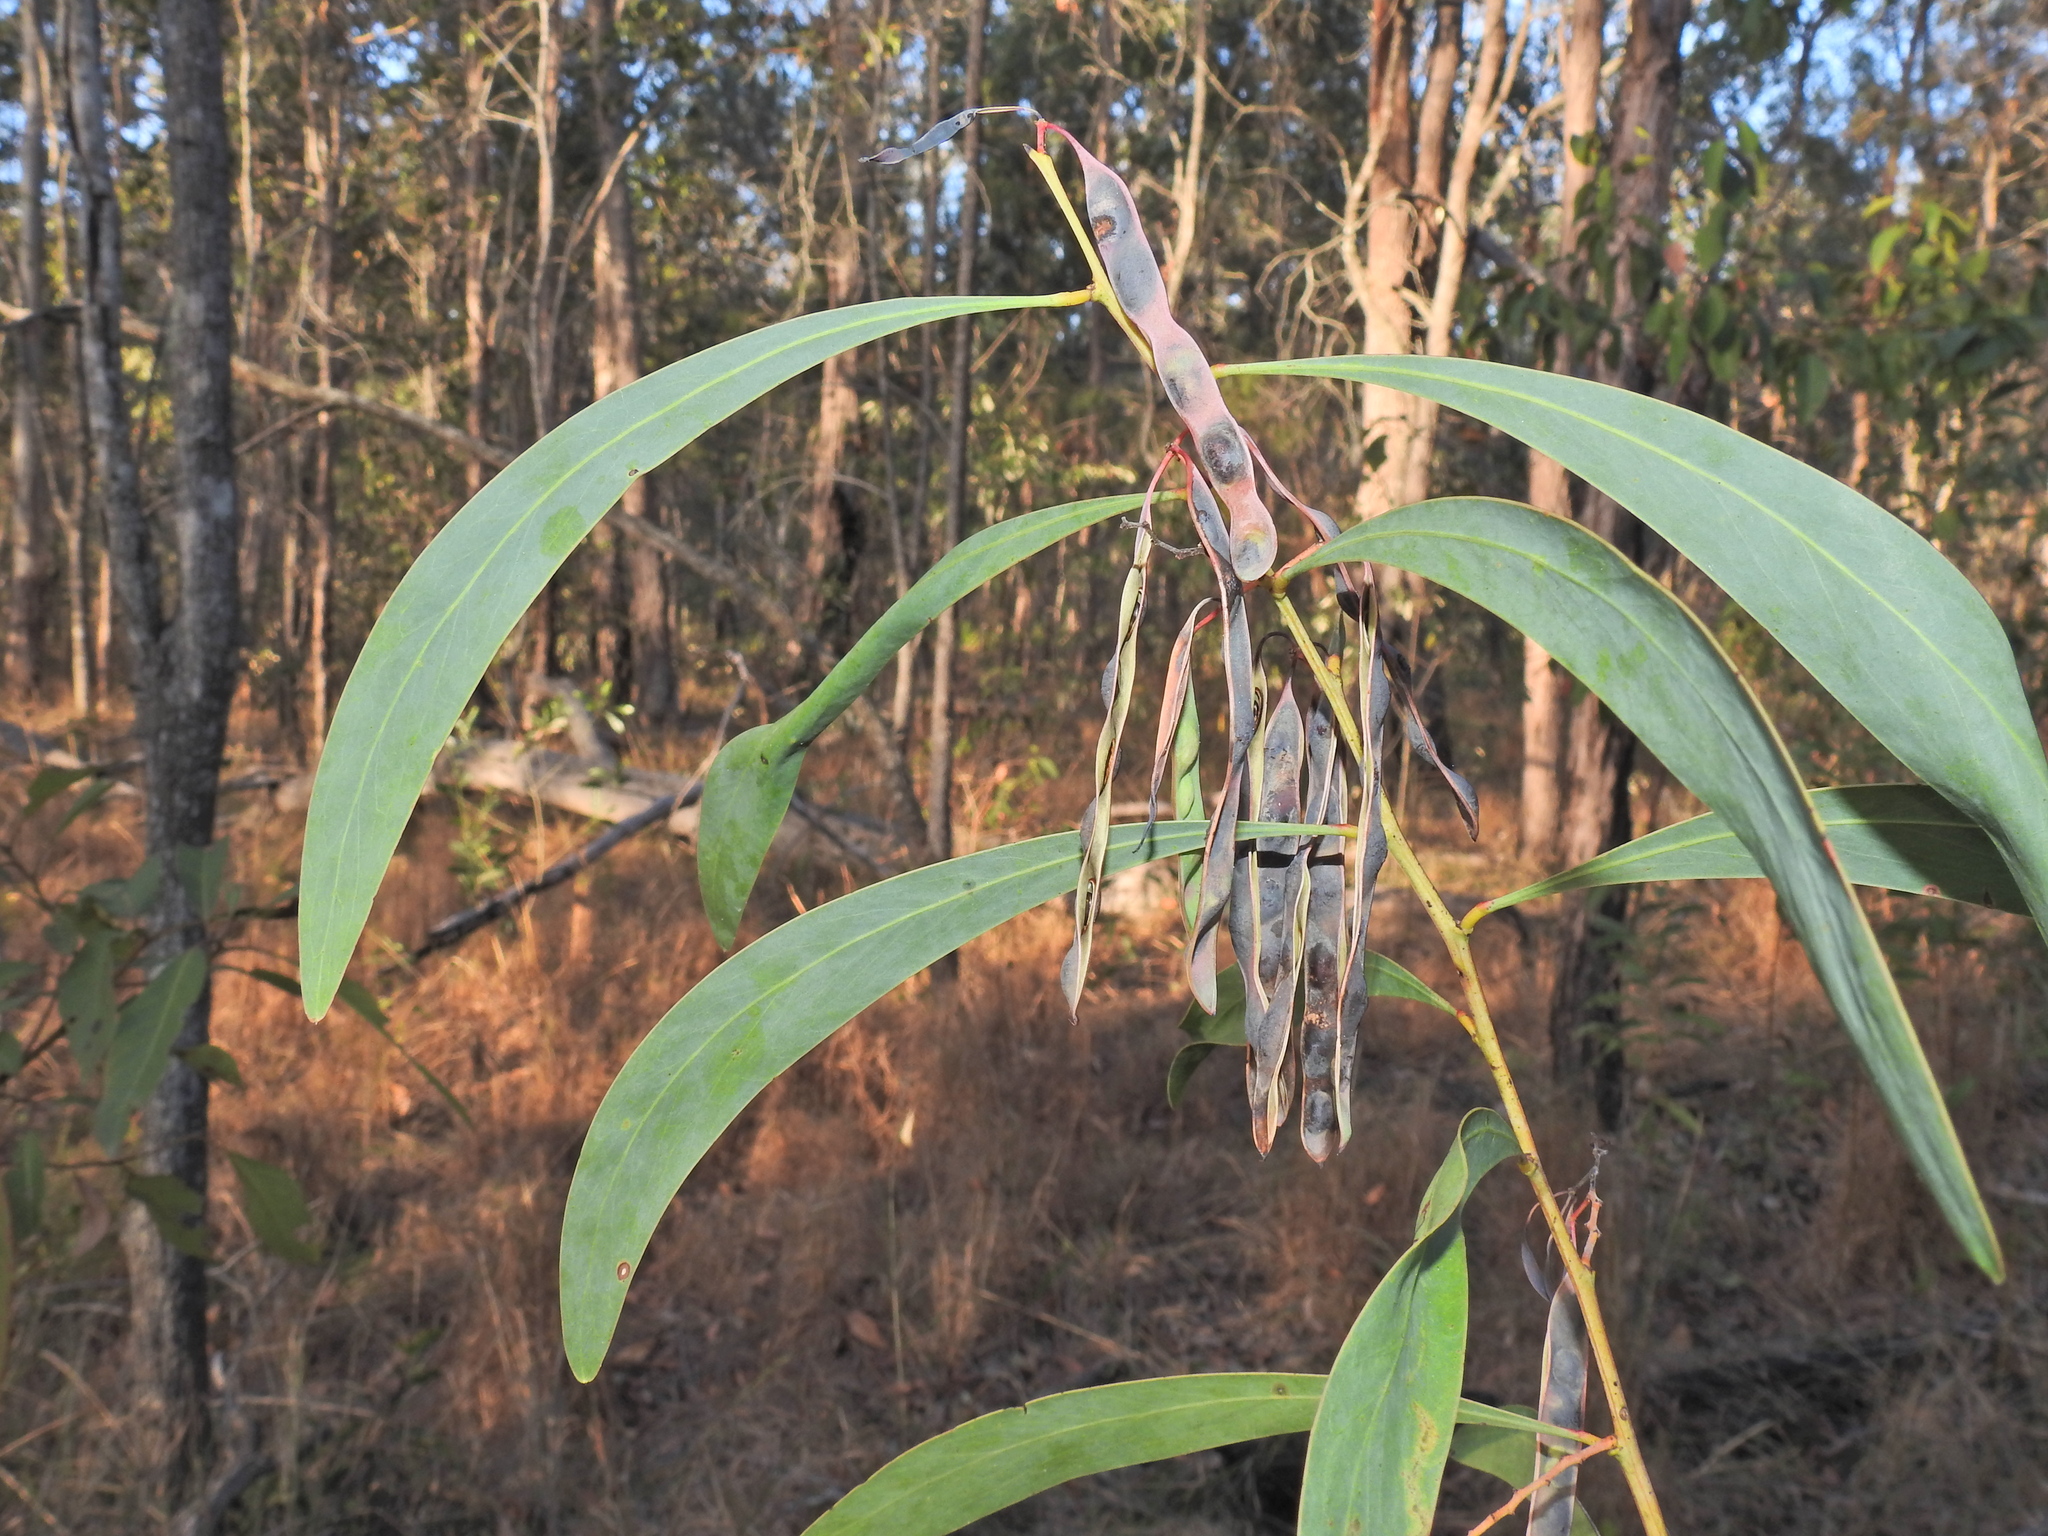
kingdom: Plantae
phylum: Tracheophyta
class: Magnoliopsida
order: Fabales
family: Fabaceae
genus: Acacia
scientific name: Acacia falcata
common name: Burra acacia
